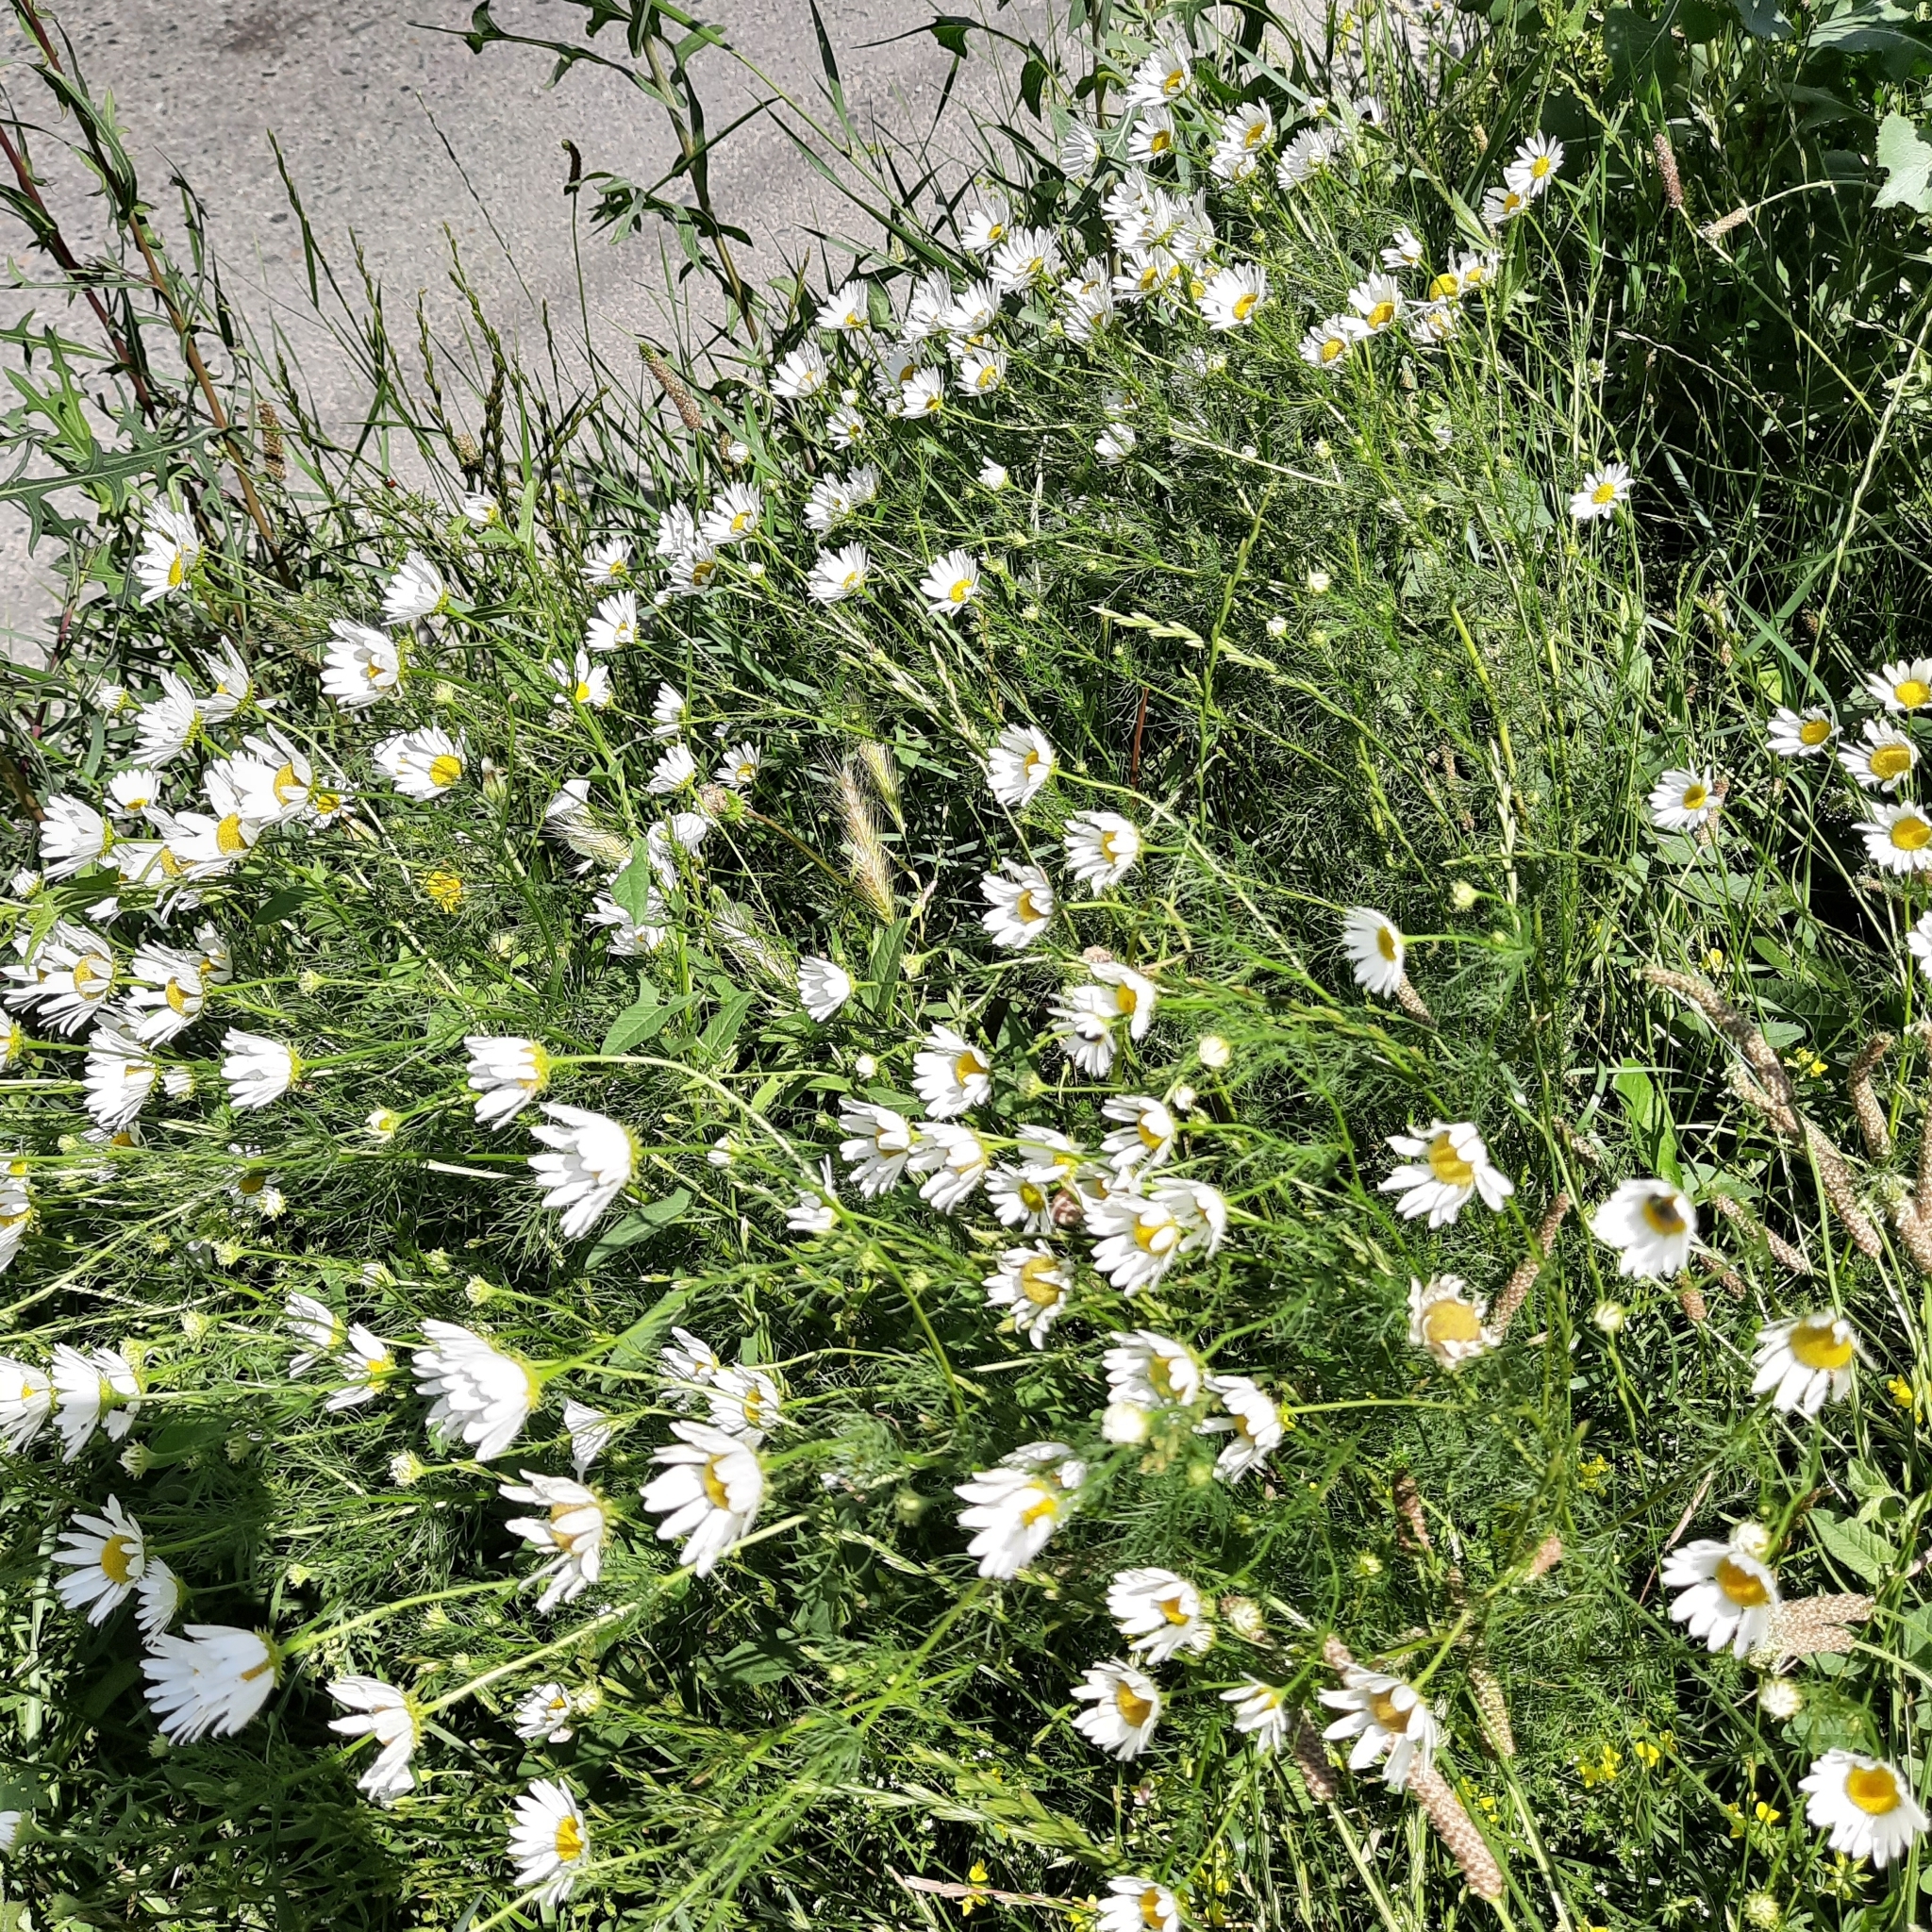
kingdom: Plantae
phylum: Tracheophyta
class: Magnoliopsida
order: Asterales
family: Asteraceae
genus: Tripleurospermum
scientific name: Tripleurospermum inodorum
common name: Scentless mayweed
